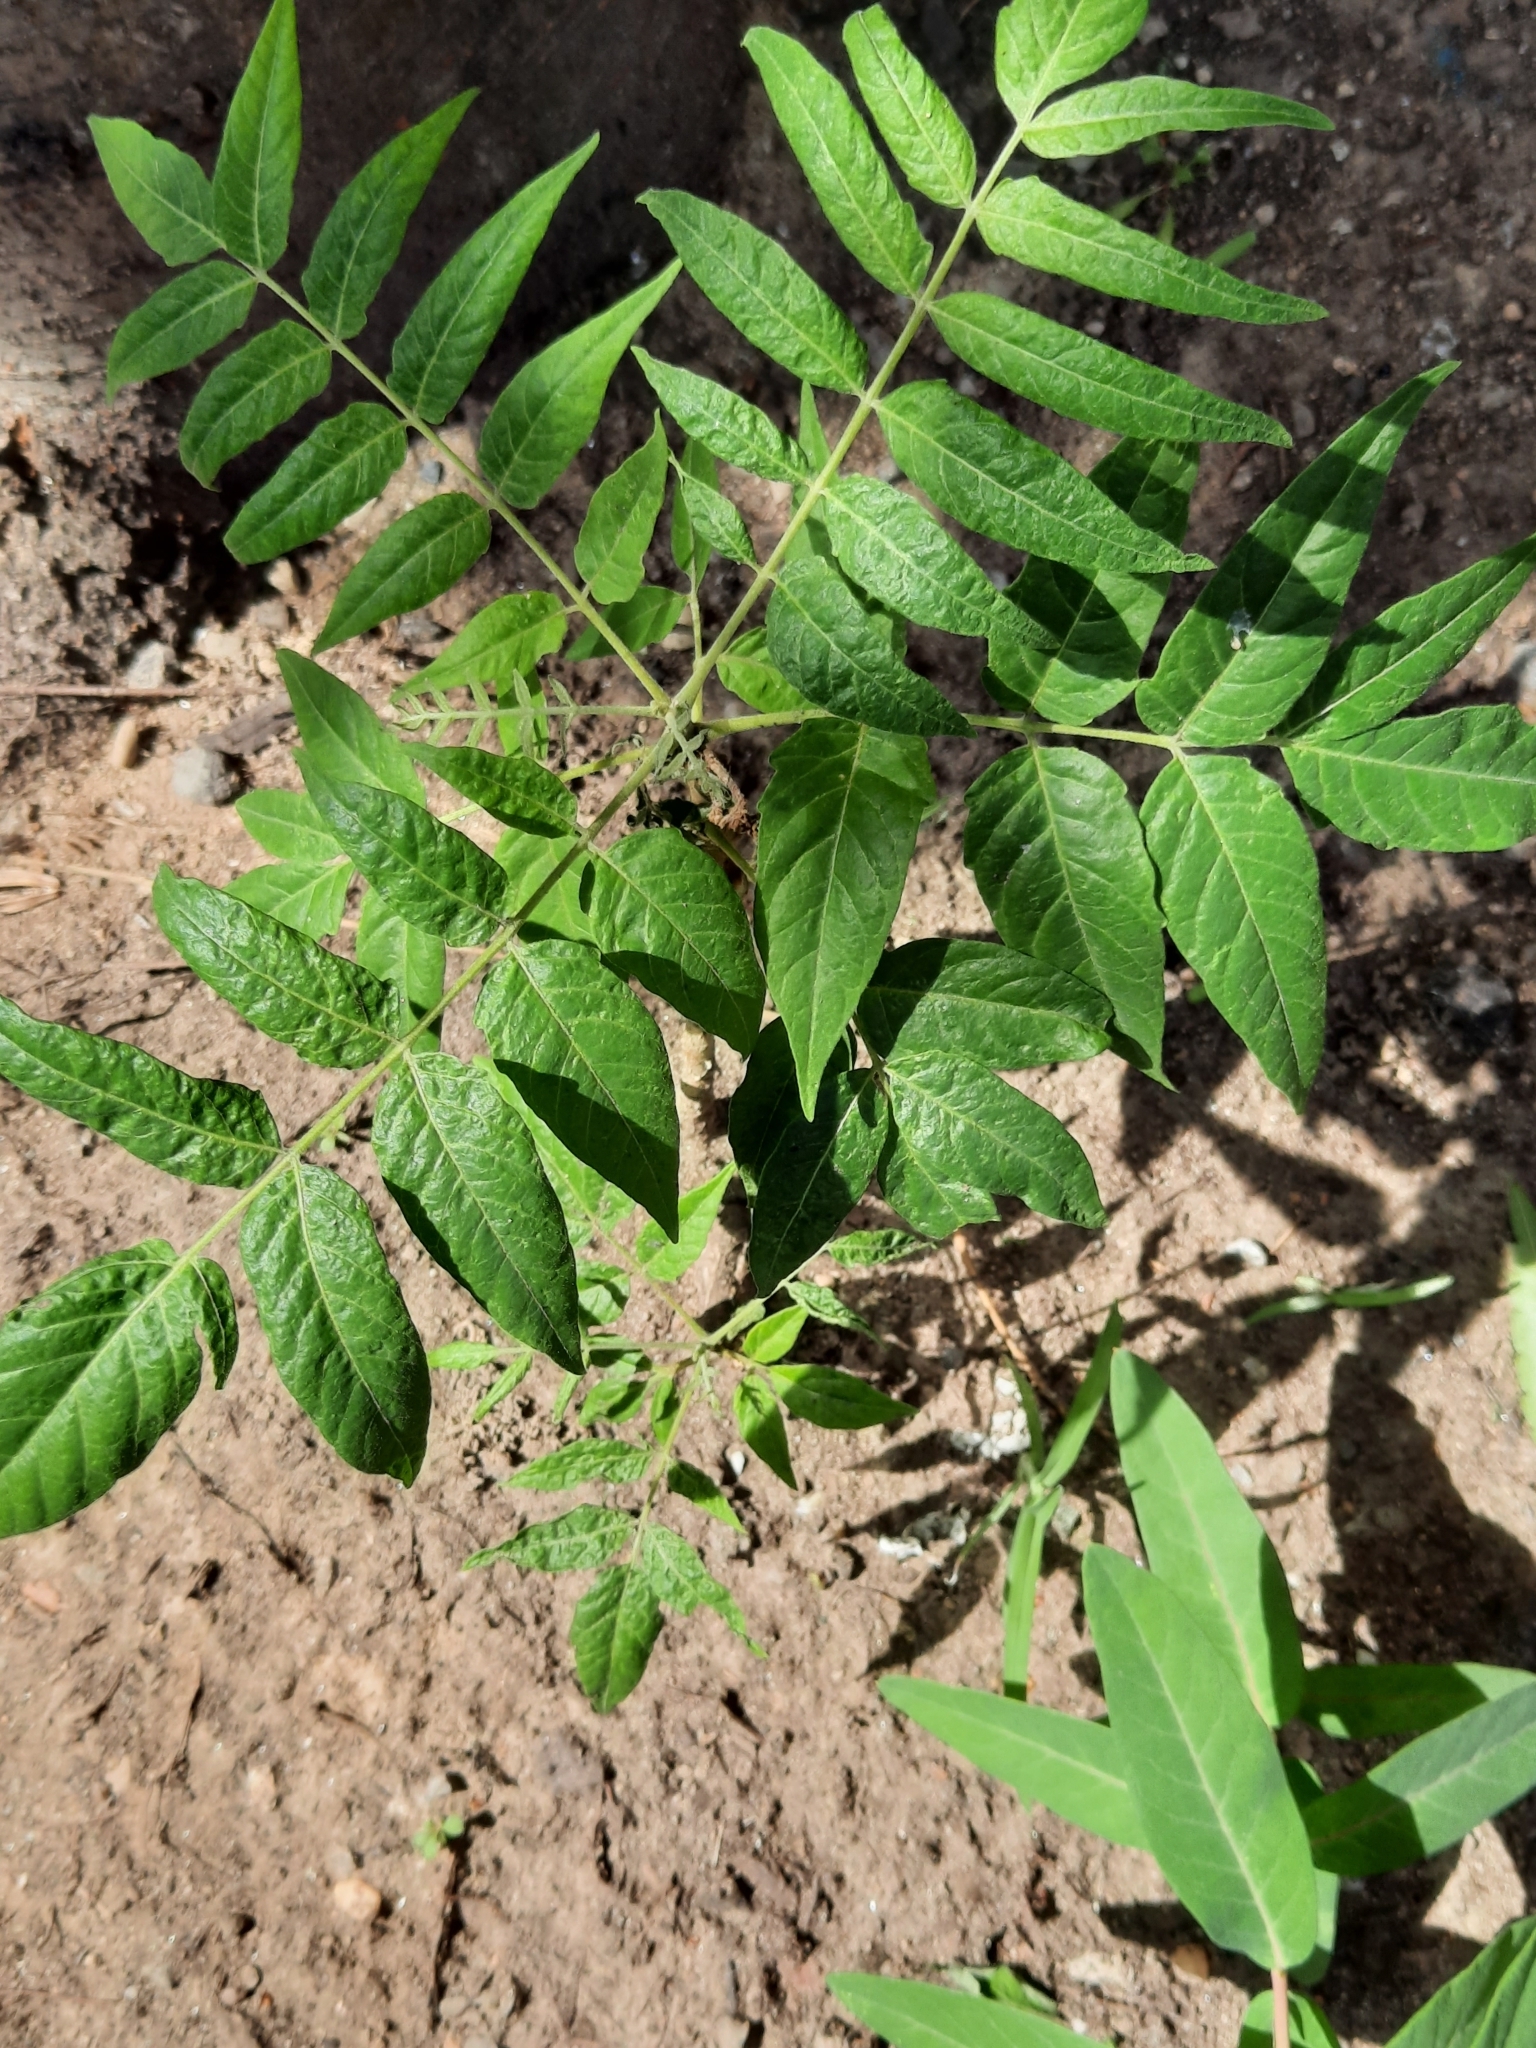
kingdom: Plantae
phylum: Tracheophyta
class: Magnoliopsida
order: Sapindales
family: Simaroubaceae
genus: Ailanthus
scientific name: Ailanthus altissima
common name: Tree-of-heaven
